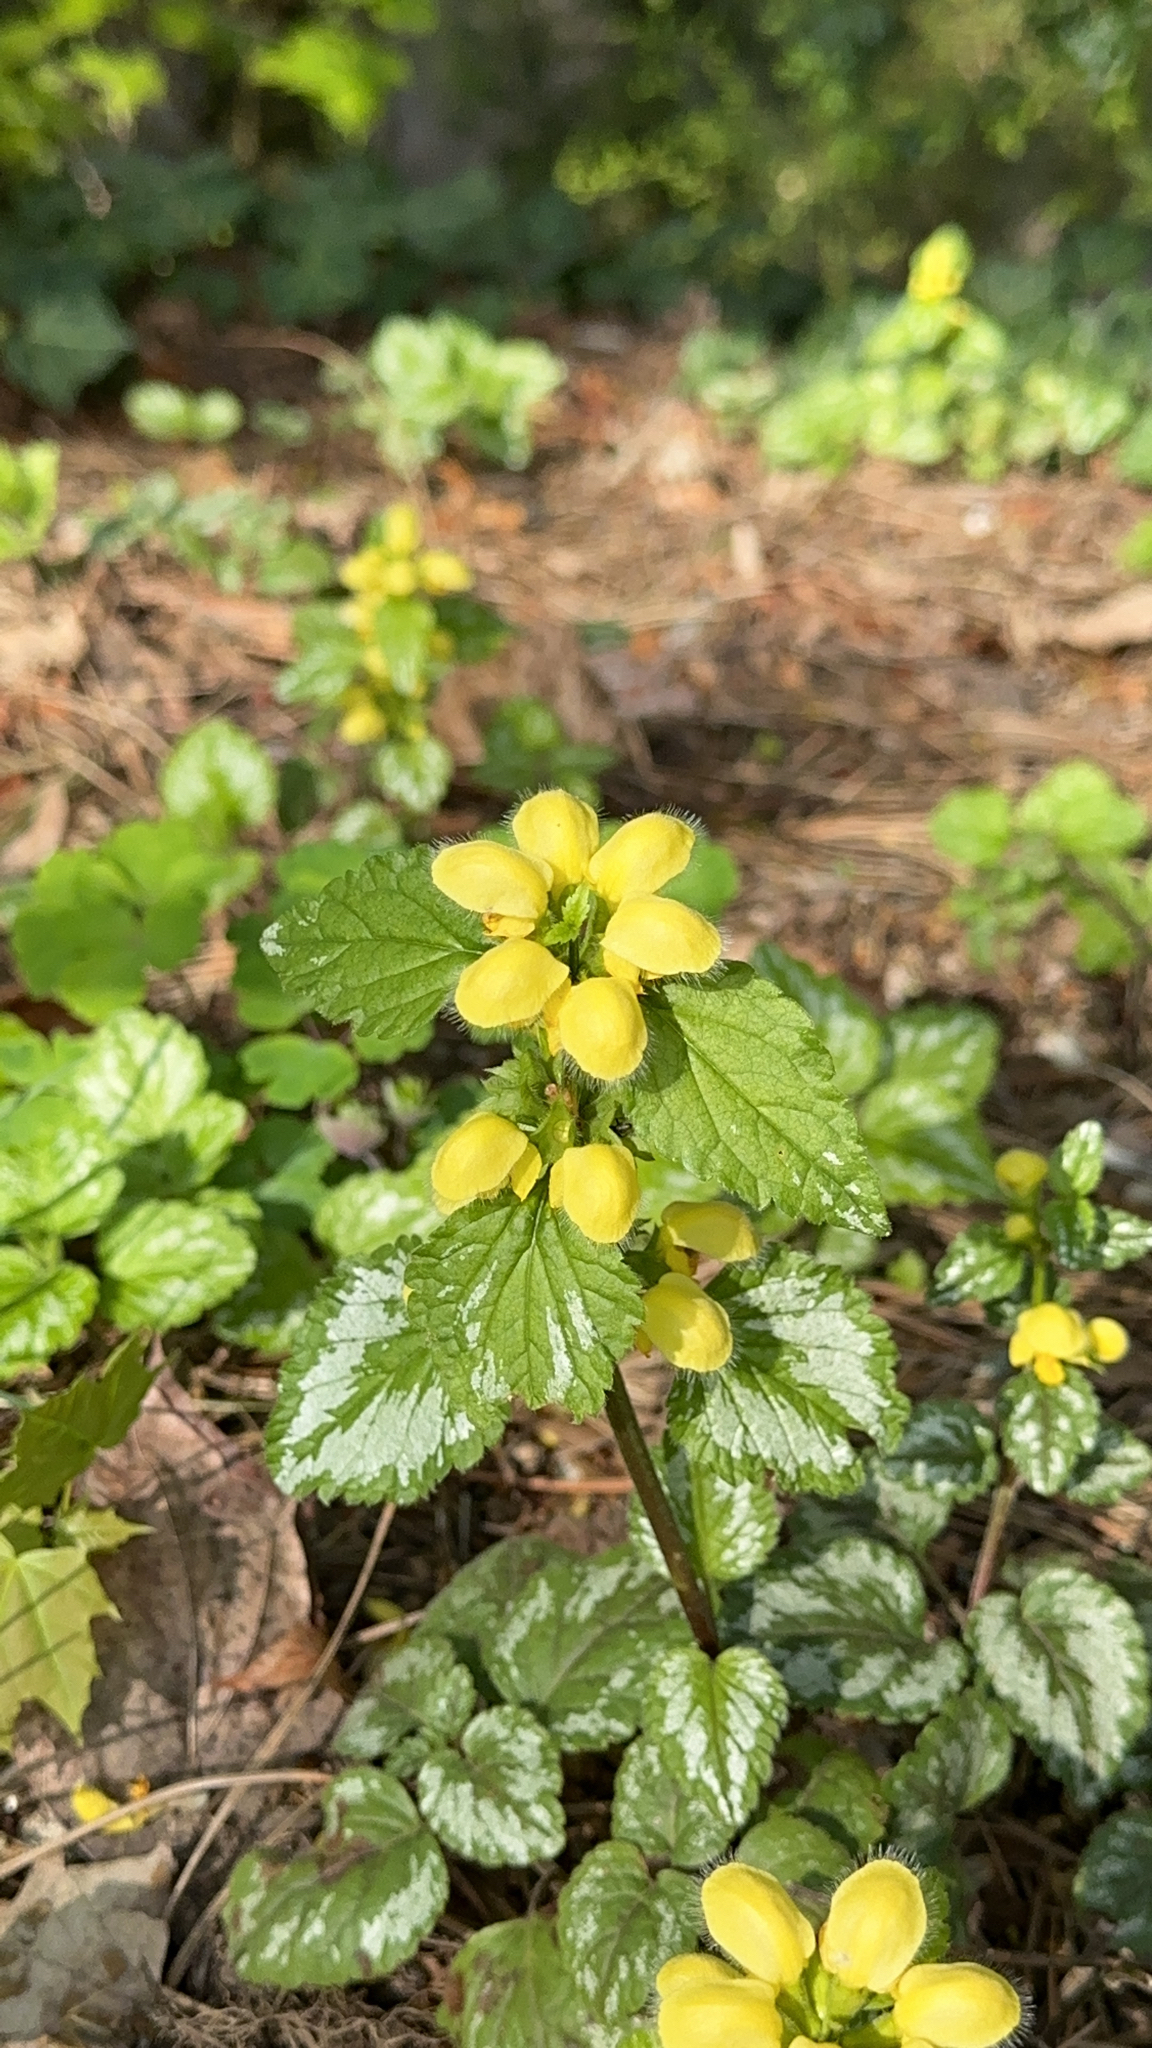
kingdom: Plantae
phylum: Tracheophyta
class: Magnoliopsida
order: Lamiales
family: Lamiaceae
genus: Lamium
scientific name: Lamium galeobdolon
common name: Yellow archangel
